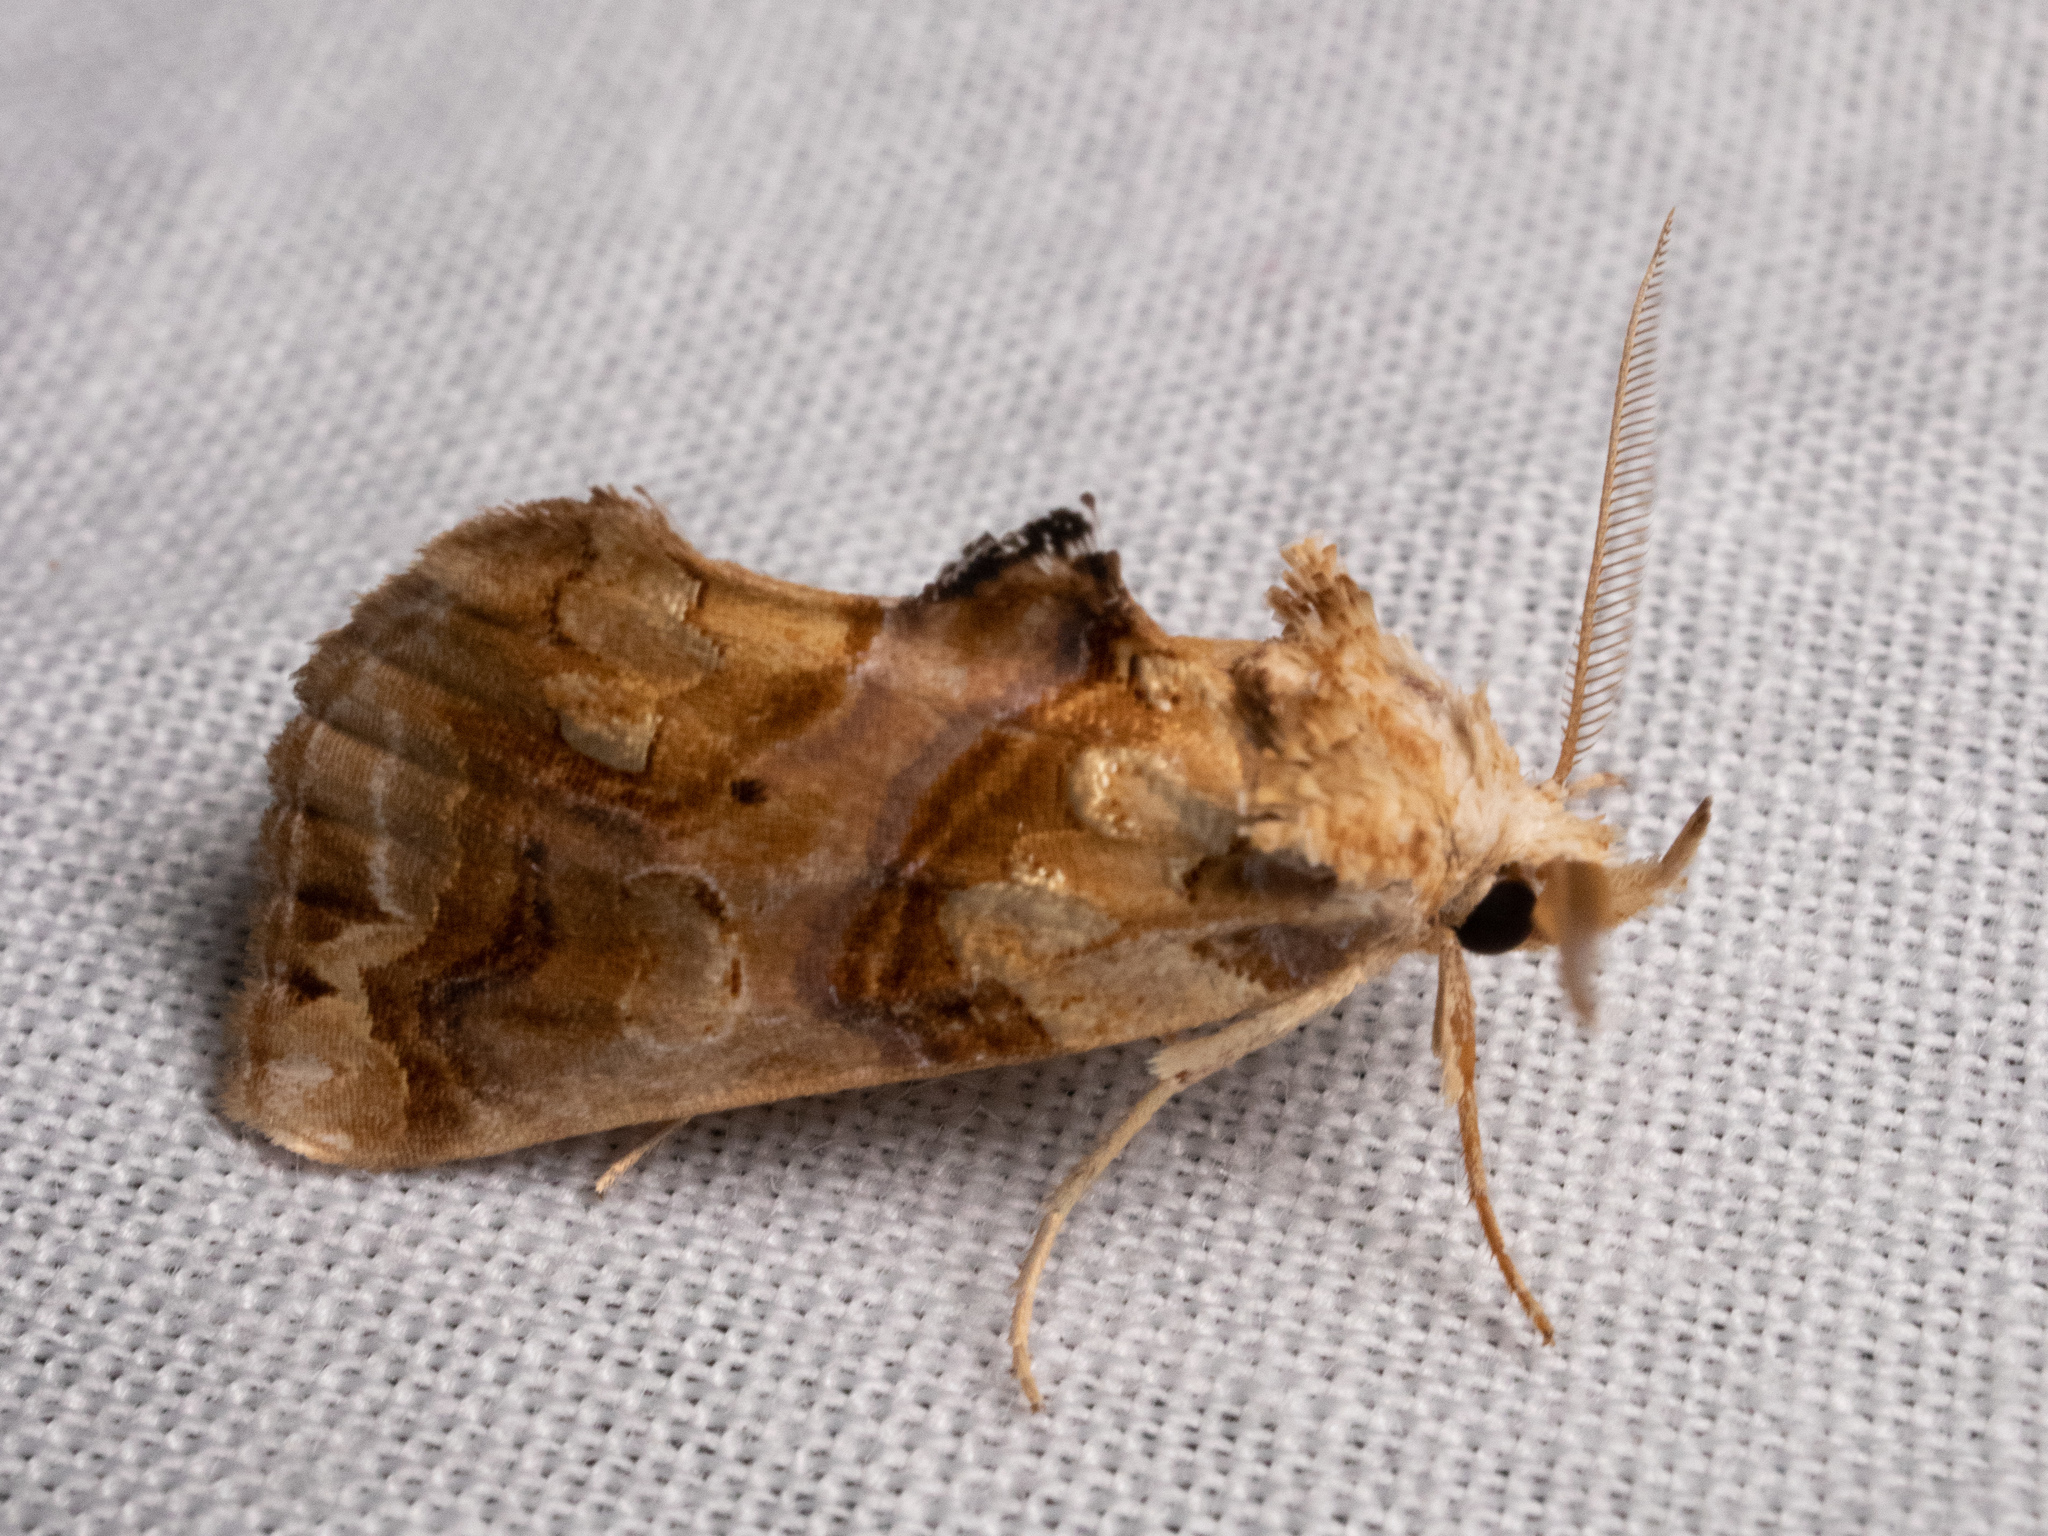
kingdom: Animalia
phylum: Arthropoda
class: Insecta
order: Lepidoptera
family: Erebidae
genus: Plusiodonta
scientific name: Plusiodonta compressipalpis
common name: Moonseed moth
